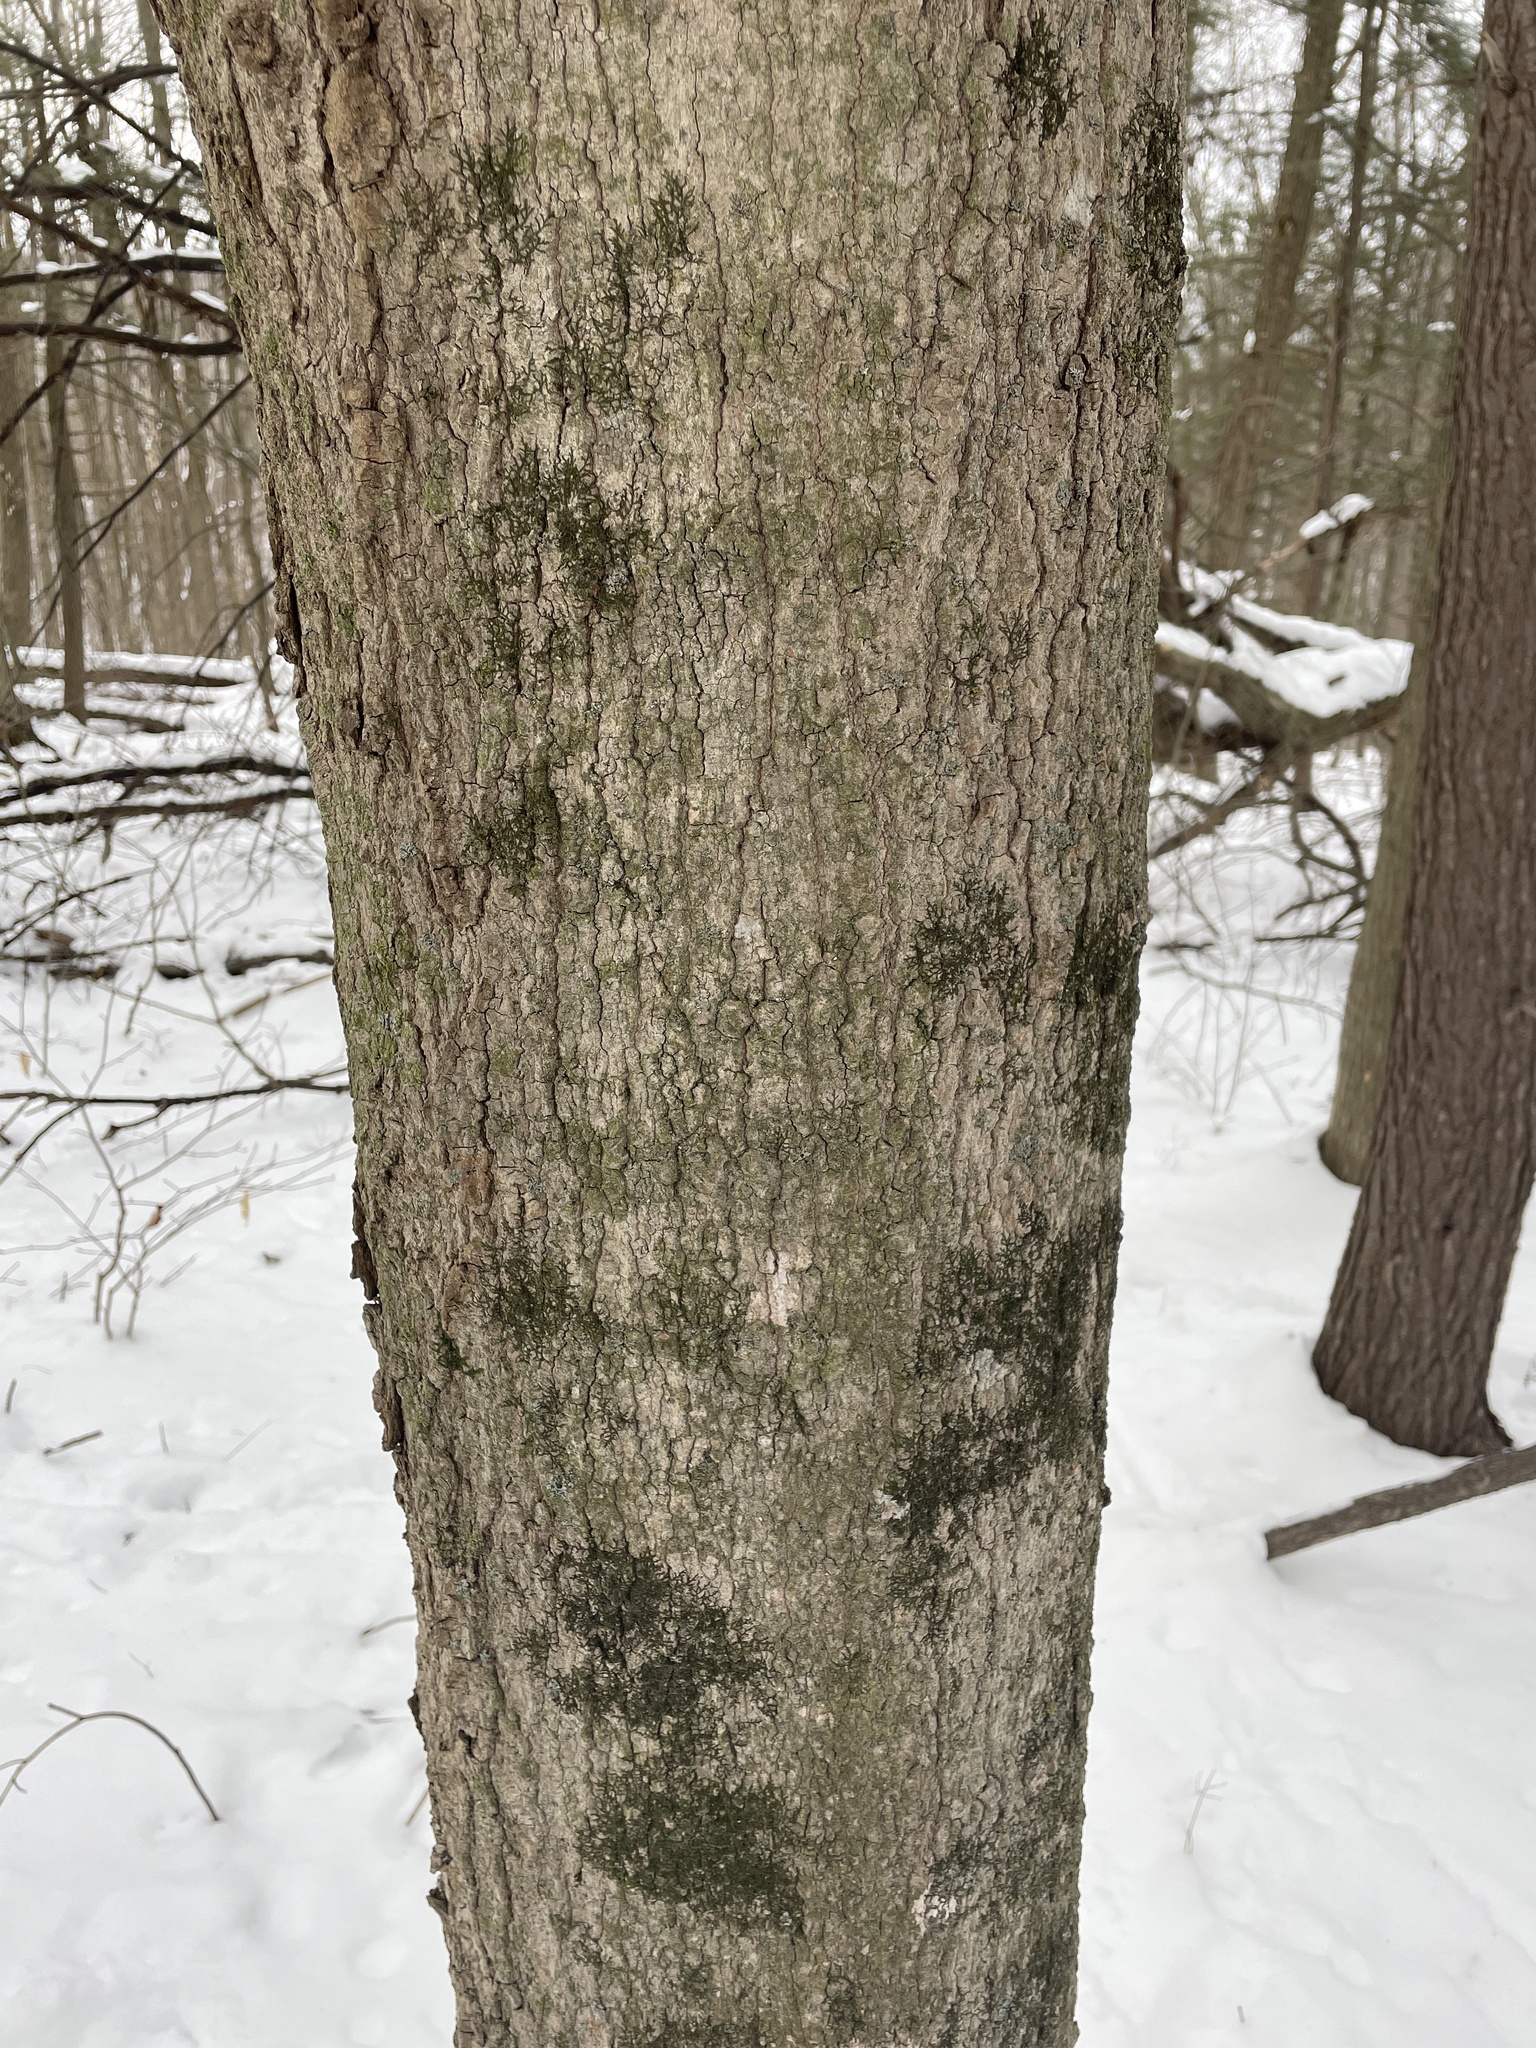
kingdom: Plantae
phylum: Tracheophyta
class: Magnoliopsida
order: Sapindales
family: Sapindaceae
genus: Acer
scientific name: Acer saccharum
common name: Sugar maple
